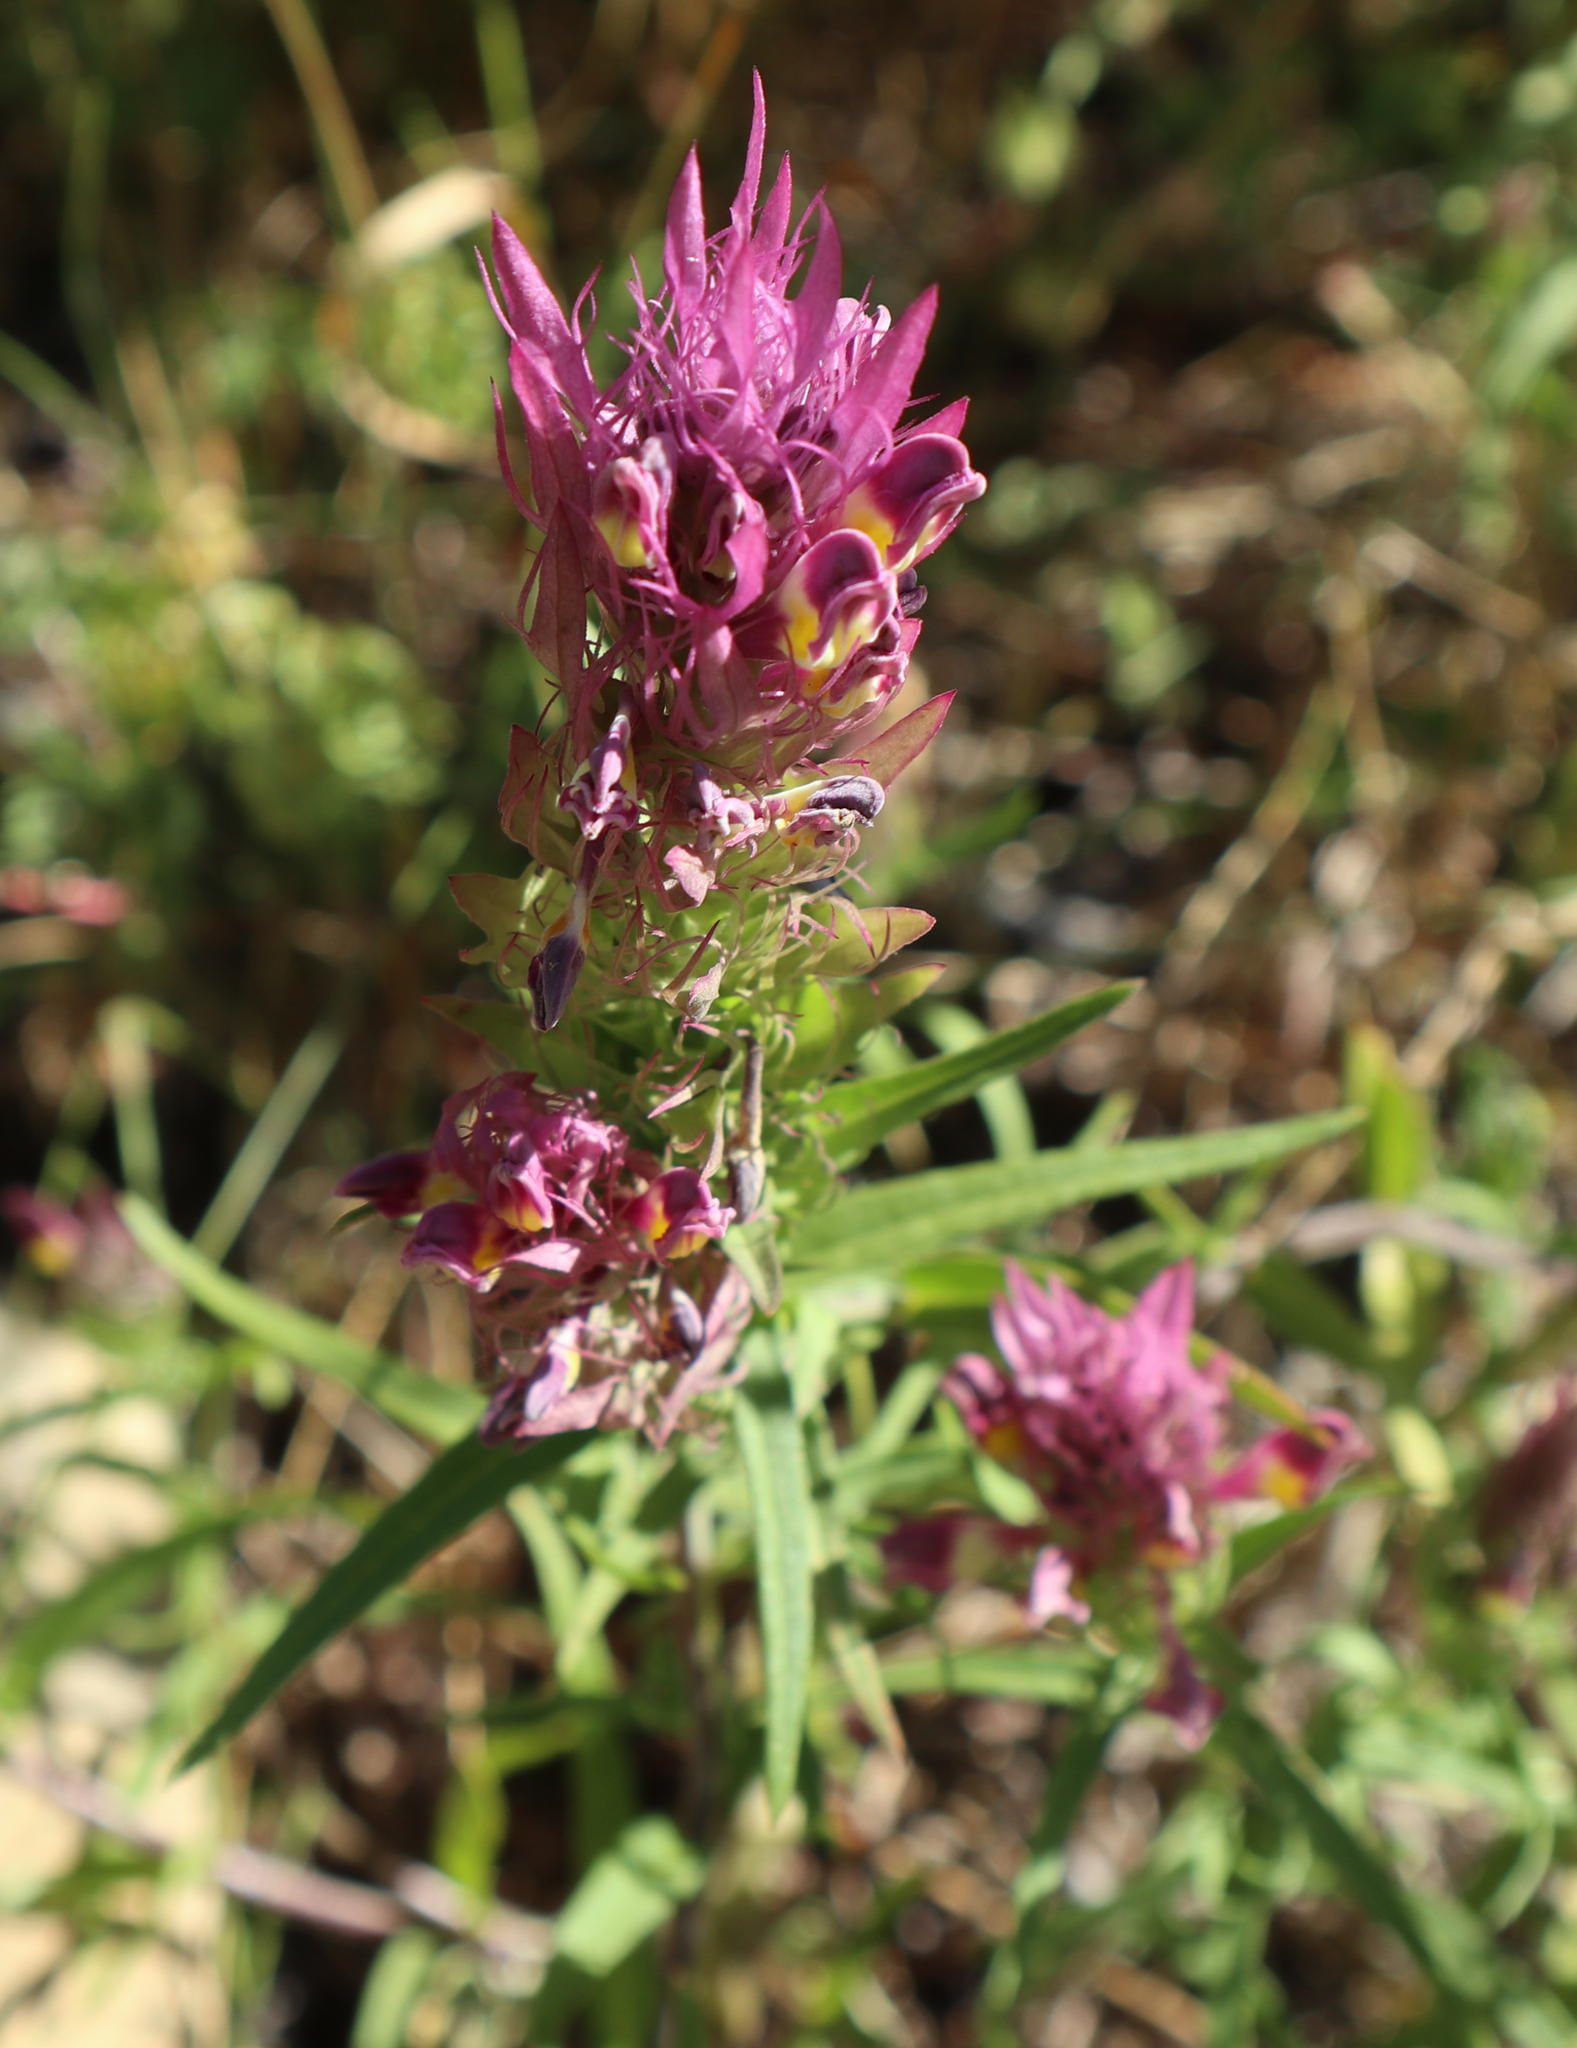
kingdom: Plantae
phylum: Tracheophyta
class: Magnoliopsida
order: Lamiales
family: Orobanchaceae
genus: Melampyrum
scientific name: Melampyrum arvense
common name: Field cow-wheat
